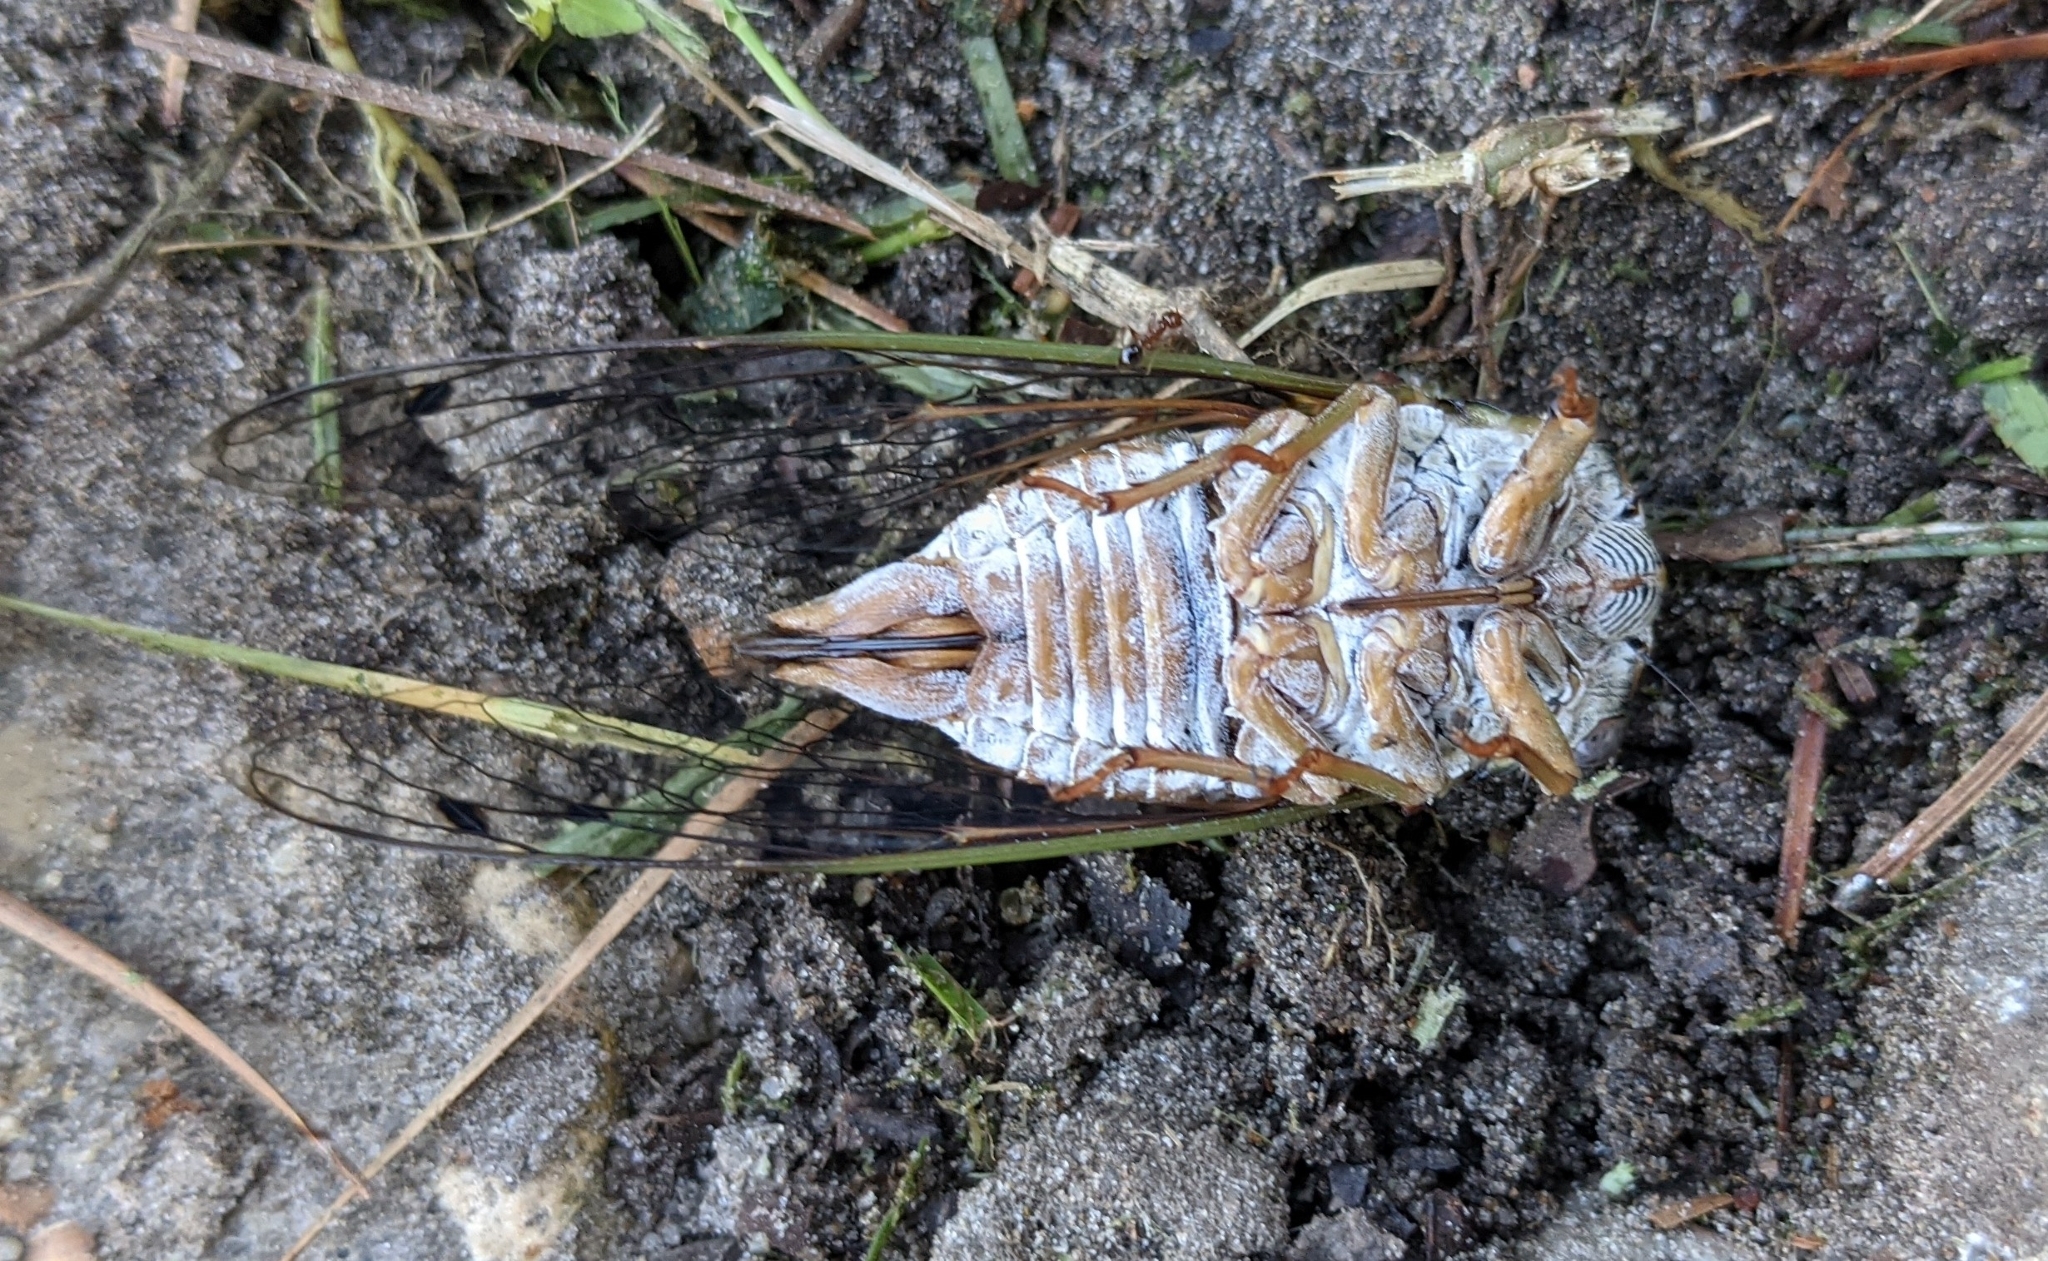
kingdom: Animalia
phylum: Arthropoda
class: Insecta
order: Hemiptera
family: Cicadidae
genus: Megatibicen
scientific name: Megatibicen resh
